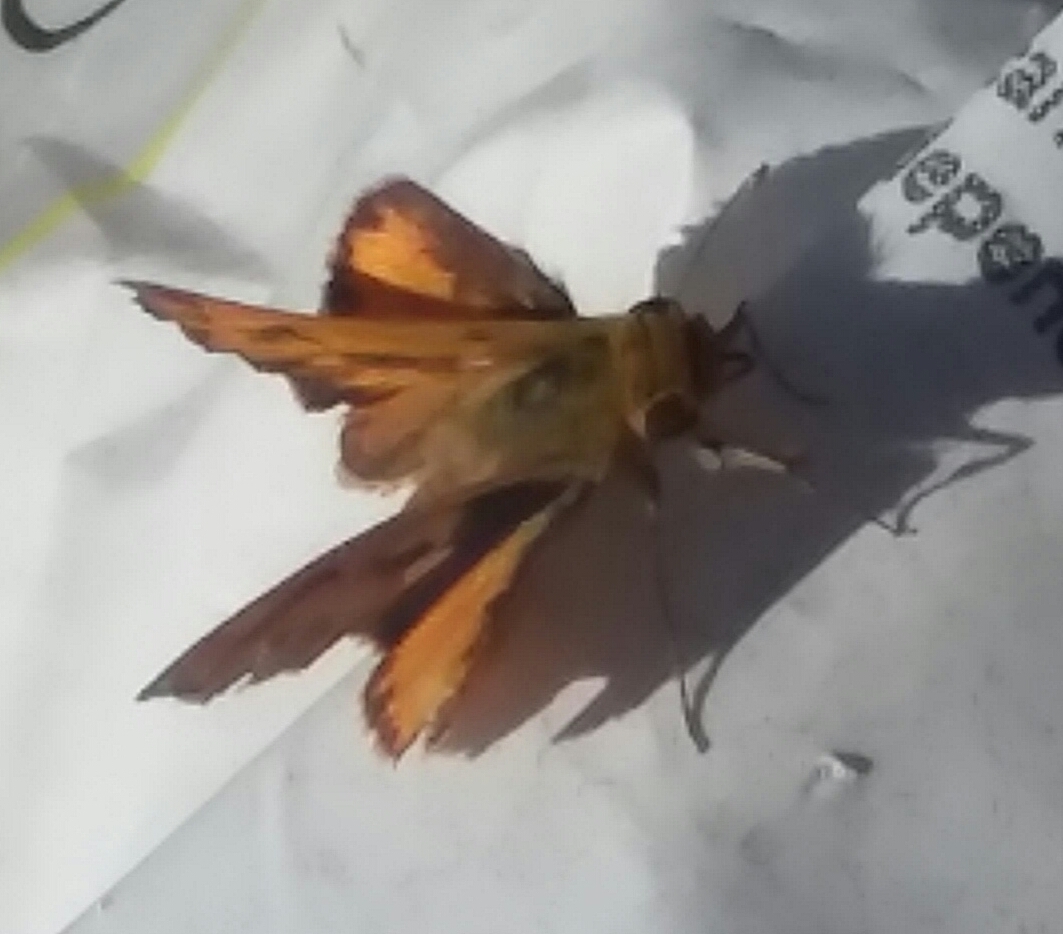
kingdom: Animalia
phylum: Arthropoda
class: Insecta
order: Lepidoptera
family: Hesperiidae
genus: Hylephila
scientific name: Hylephila phyleus
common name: Fiery skipper
